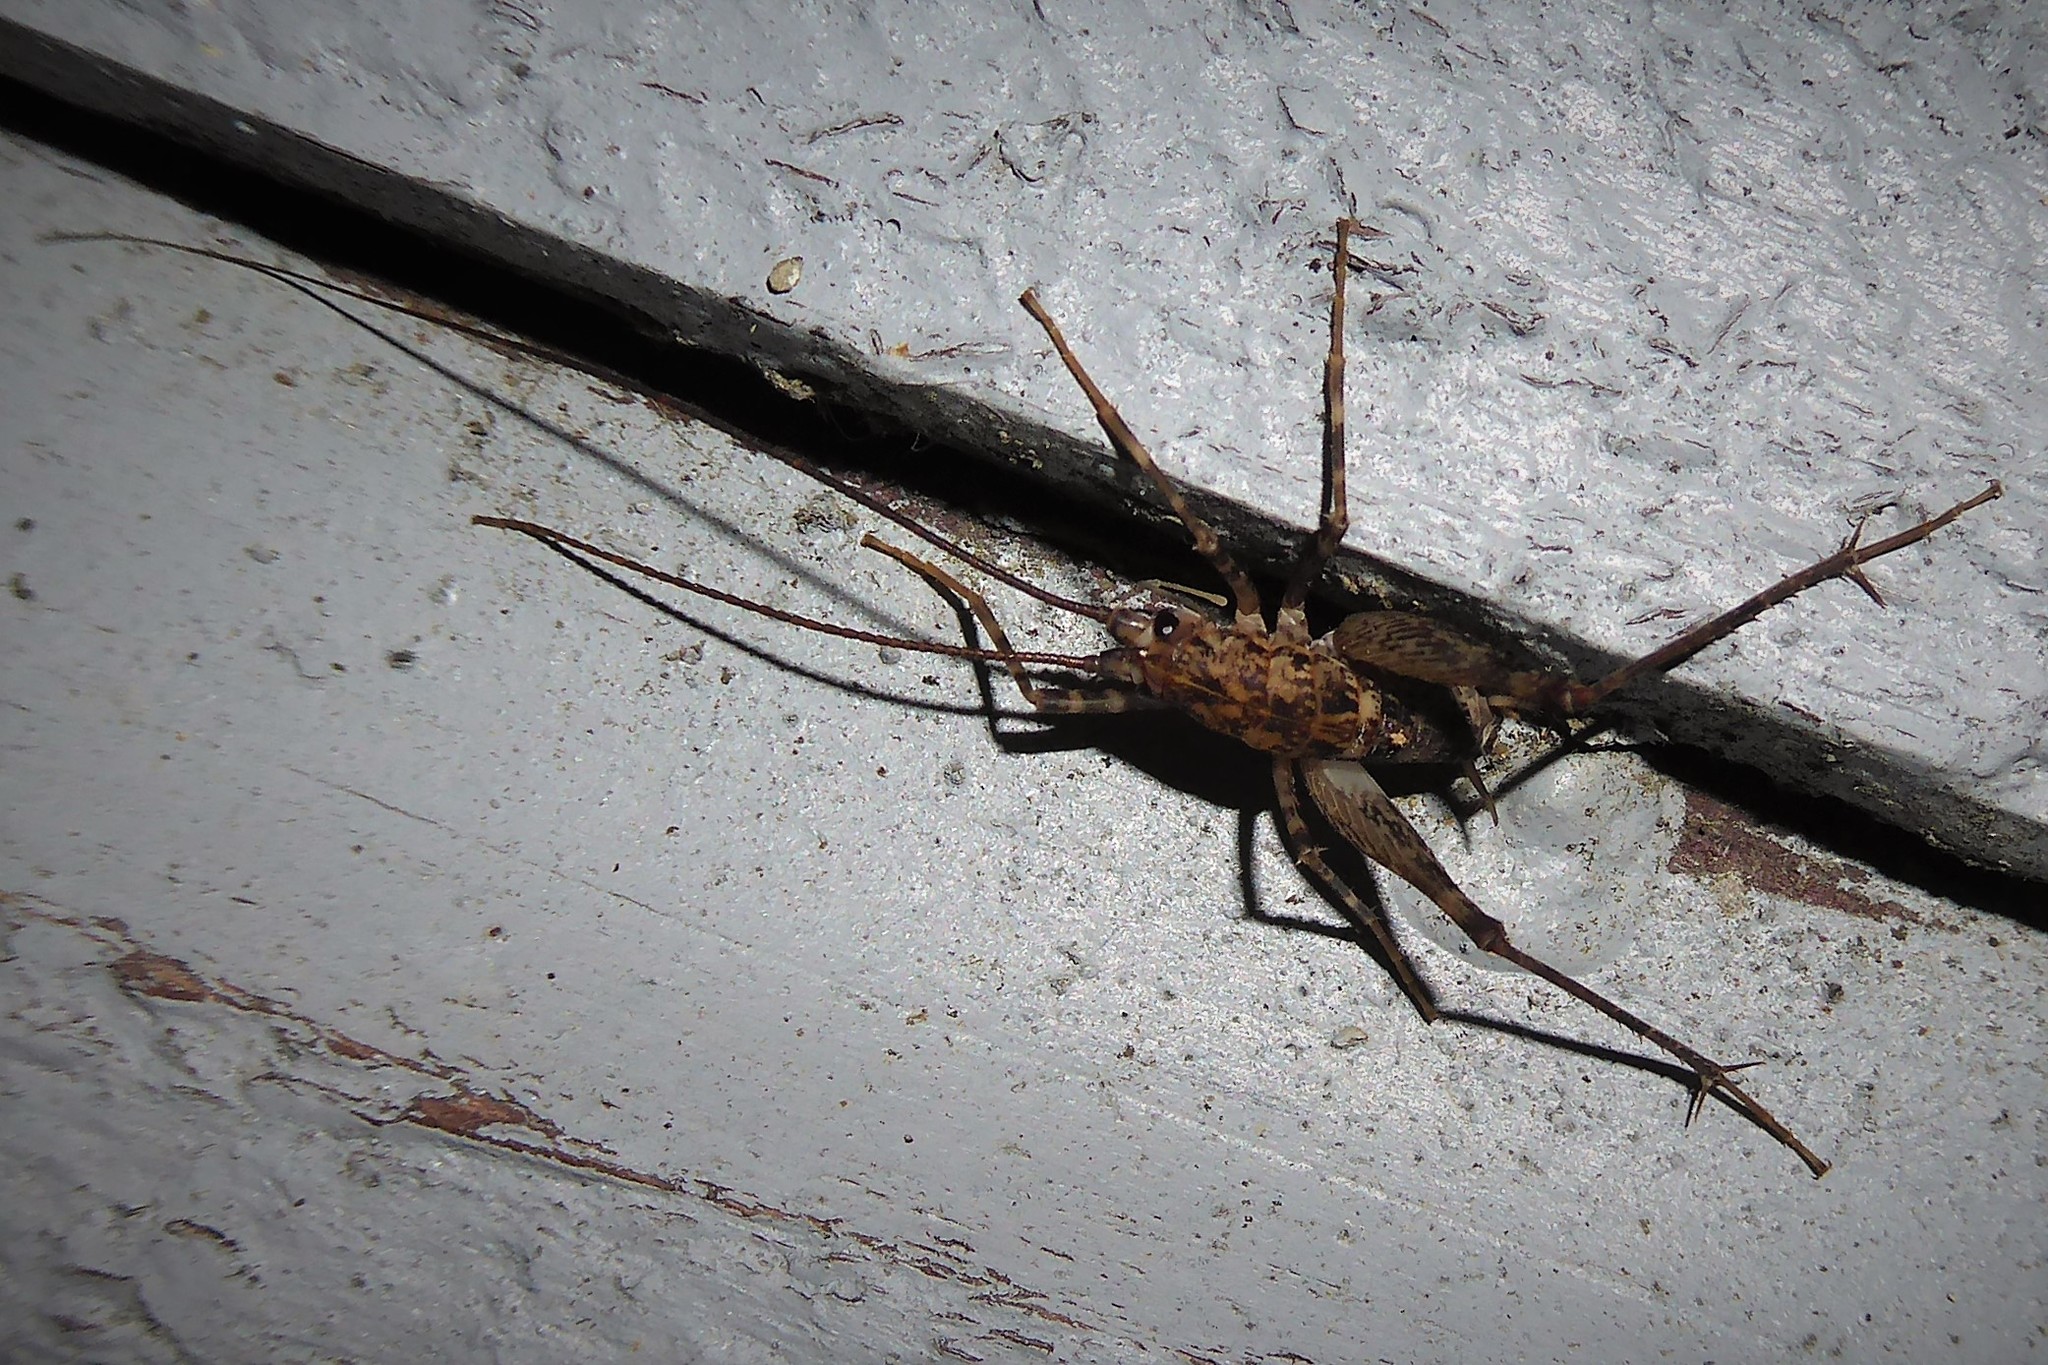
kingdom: Animalia
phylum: Arthropoda
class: Insecta
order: Orthoptera
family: Rhaphidophoridae
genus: Pleioplectron
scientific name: Pleioplectron simplex
